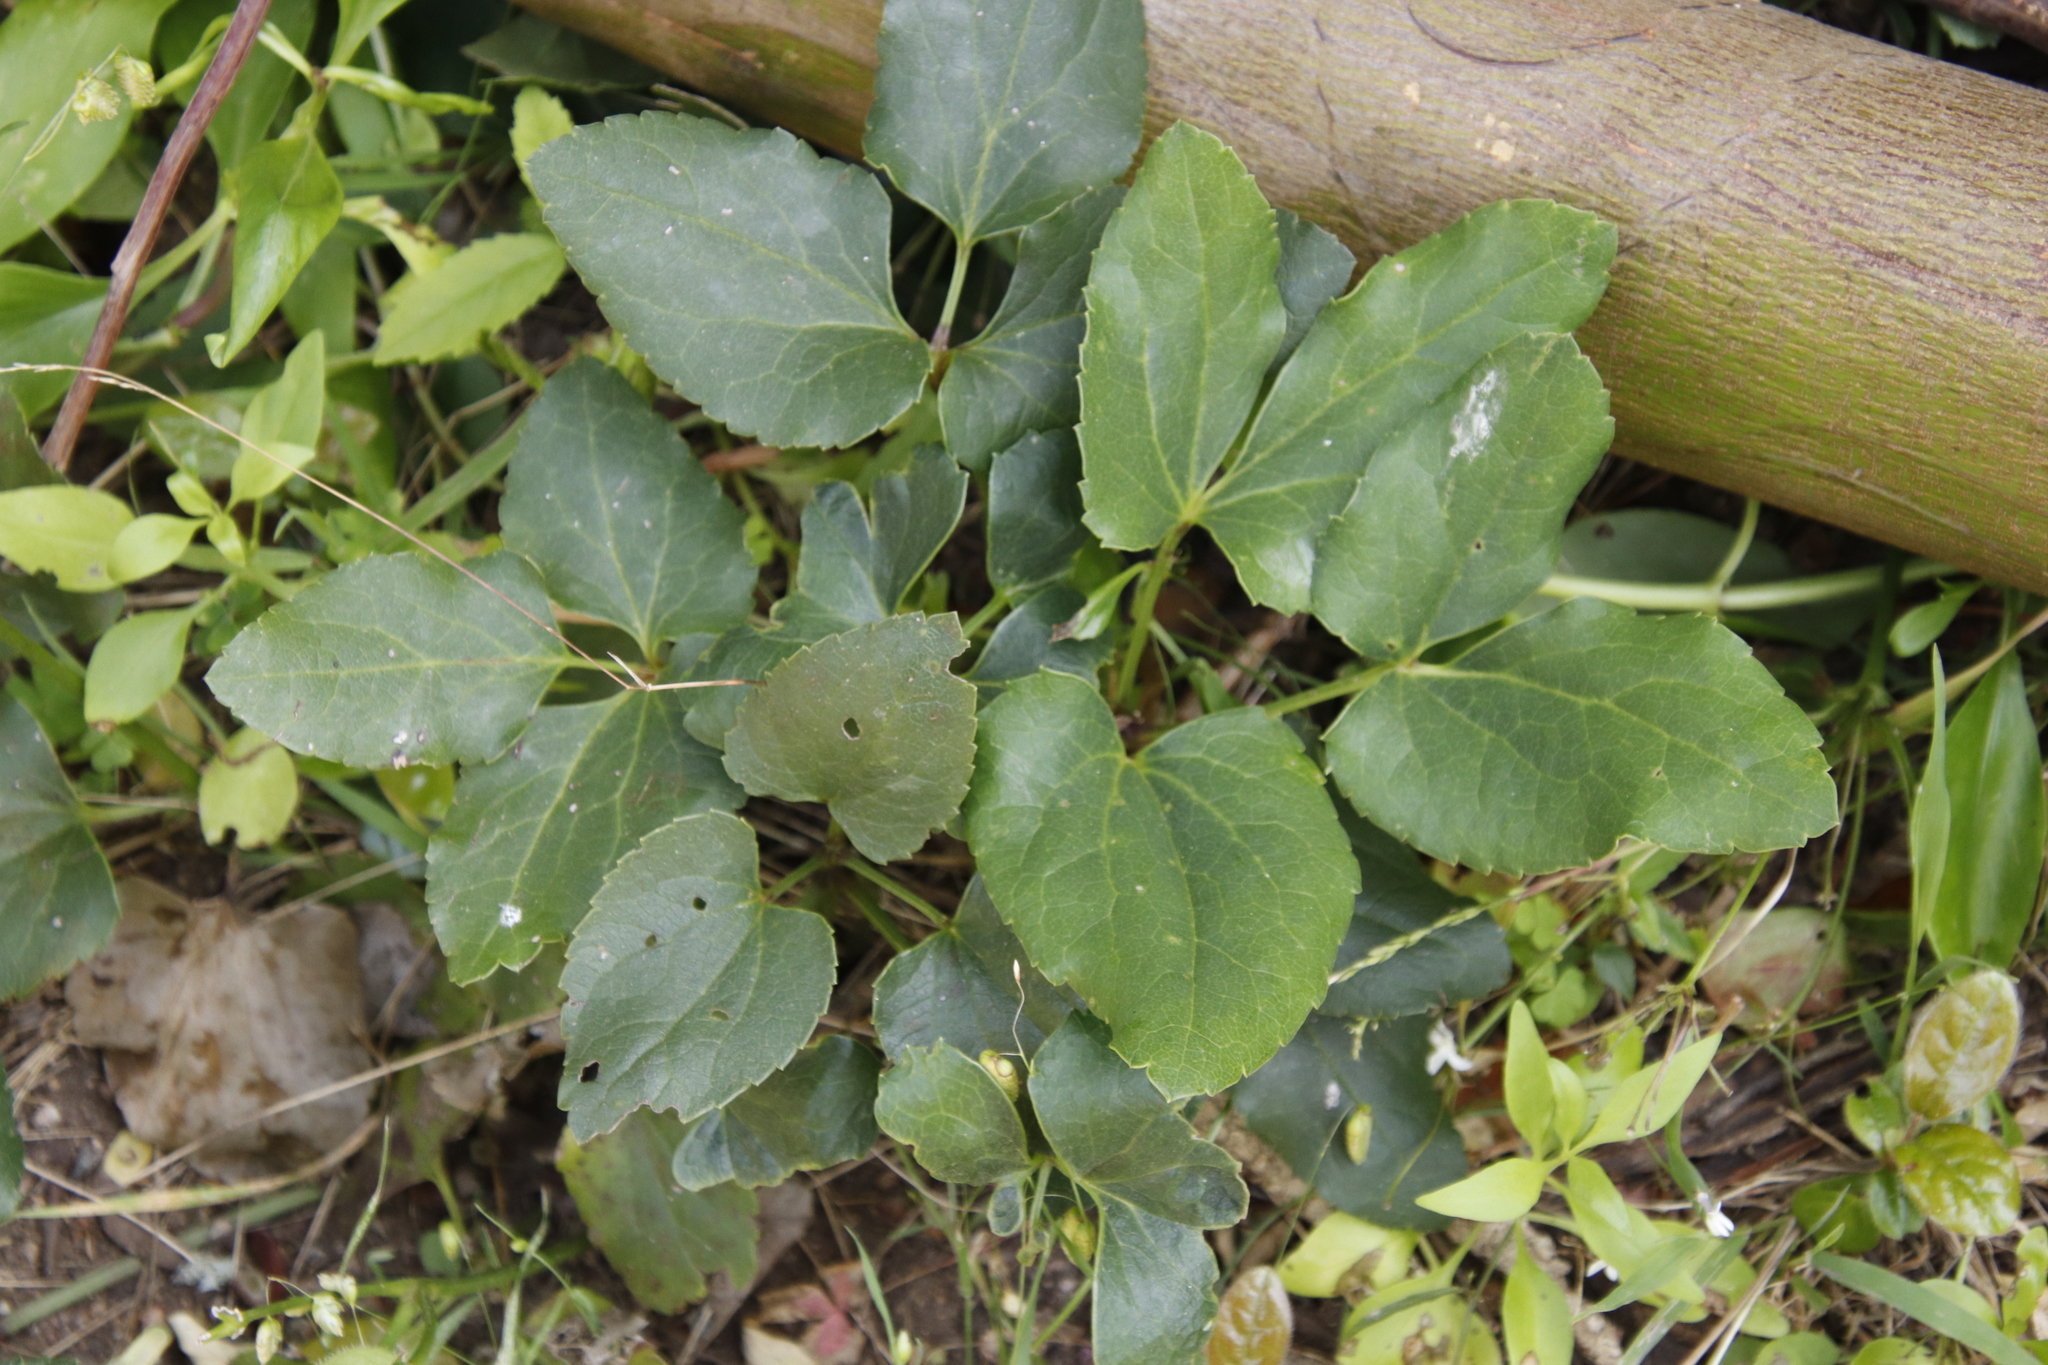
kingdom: Plantae
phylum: Tracheophyta
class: Magnoliopsida
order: Ranunculales
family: Ranunculaceae
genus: Knowltonia
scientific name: Knowltonia vesicatoria
